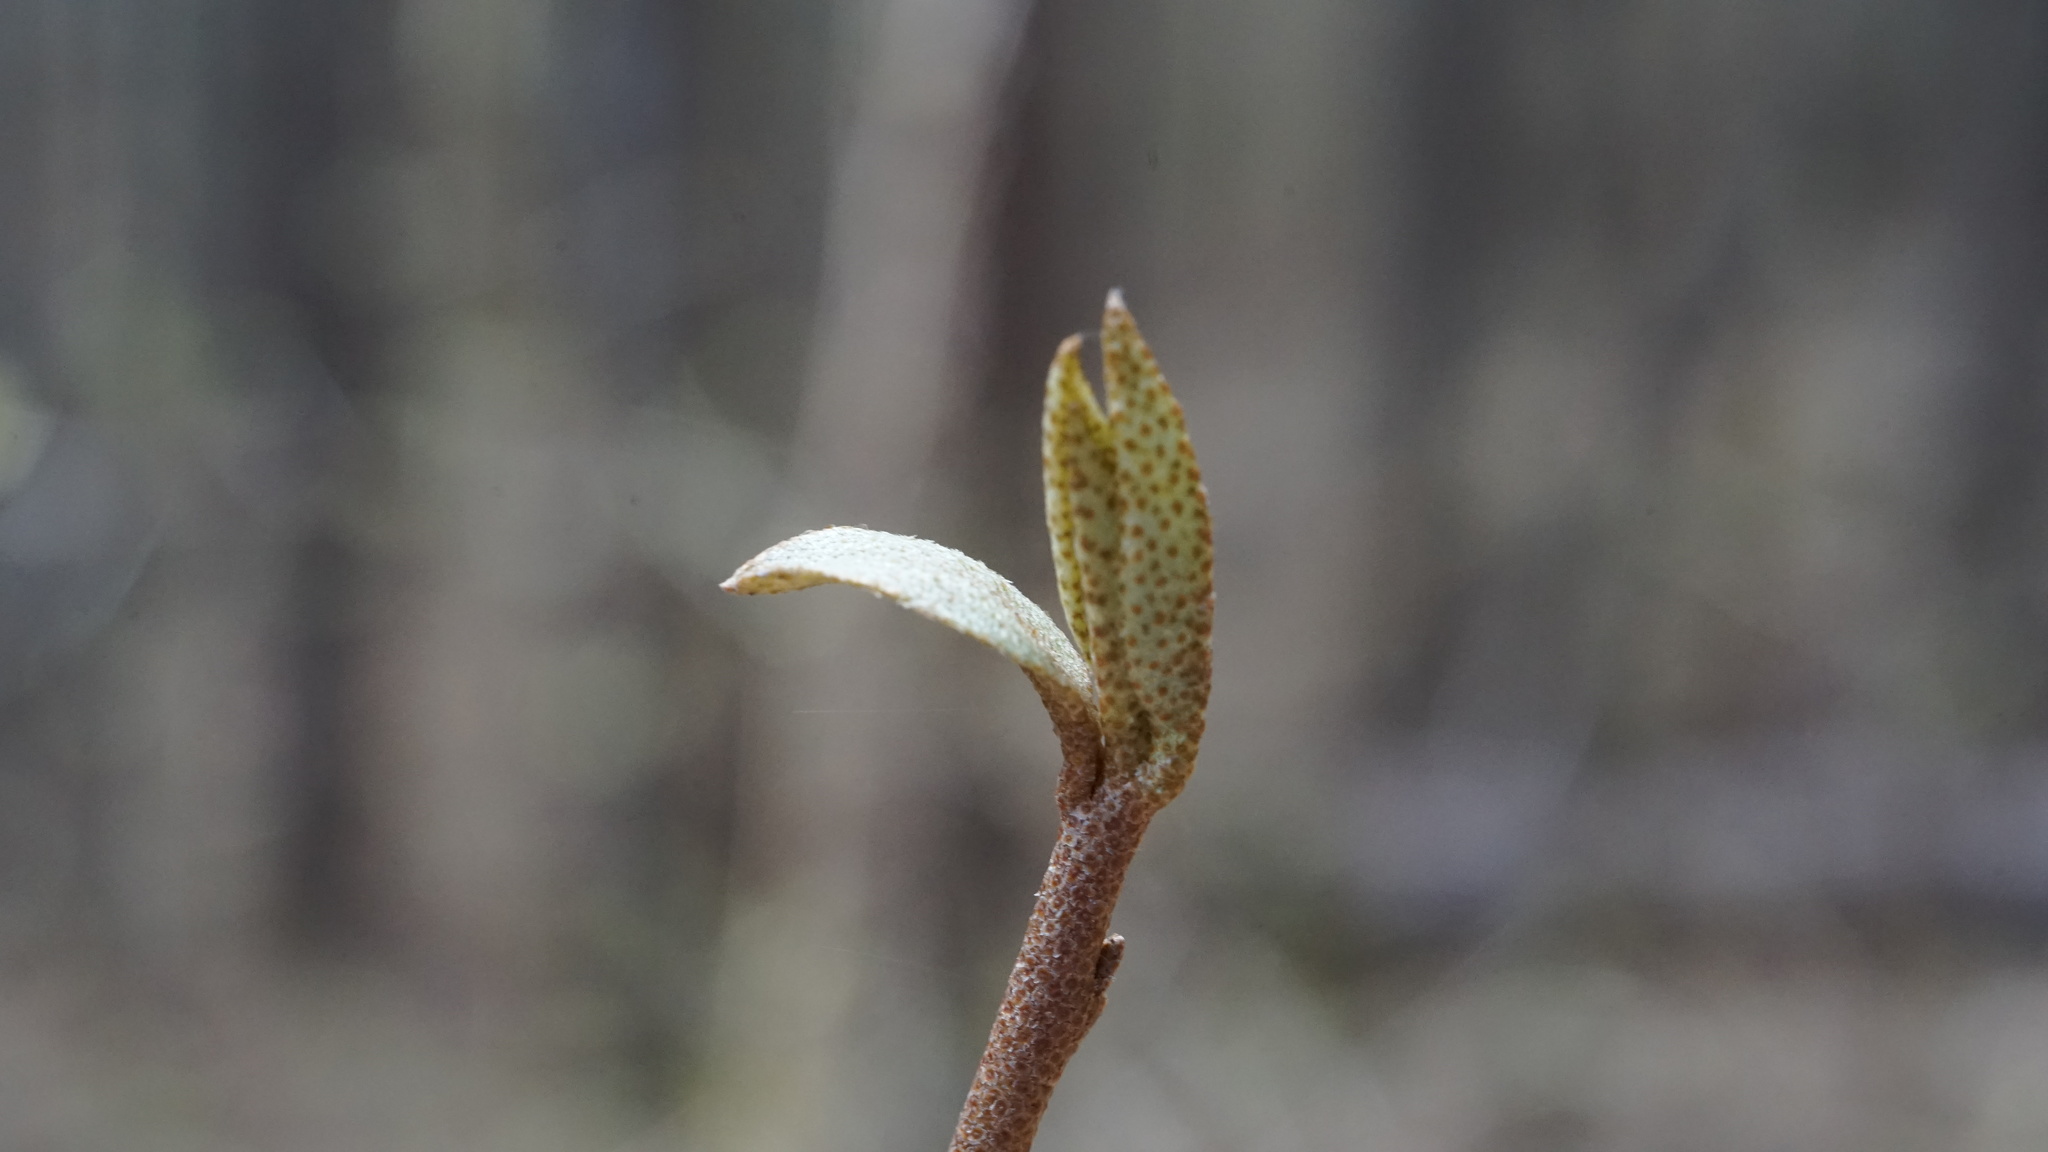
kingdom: Plantae
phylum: Tracheophyta
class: Magnoliopsida
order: Rosales
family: Elaeagnaceae
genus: Elaeagnus
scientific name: Elaeagnus umbellata
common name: Autumn olive
